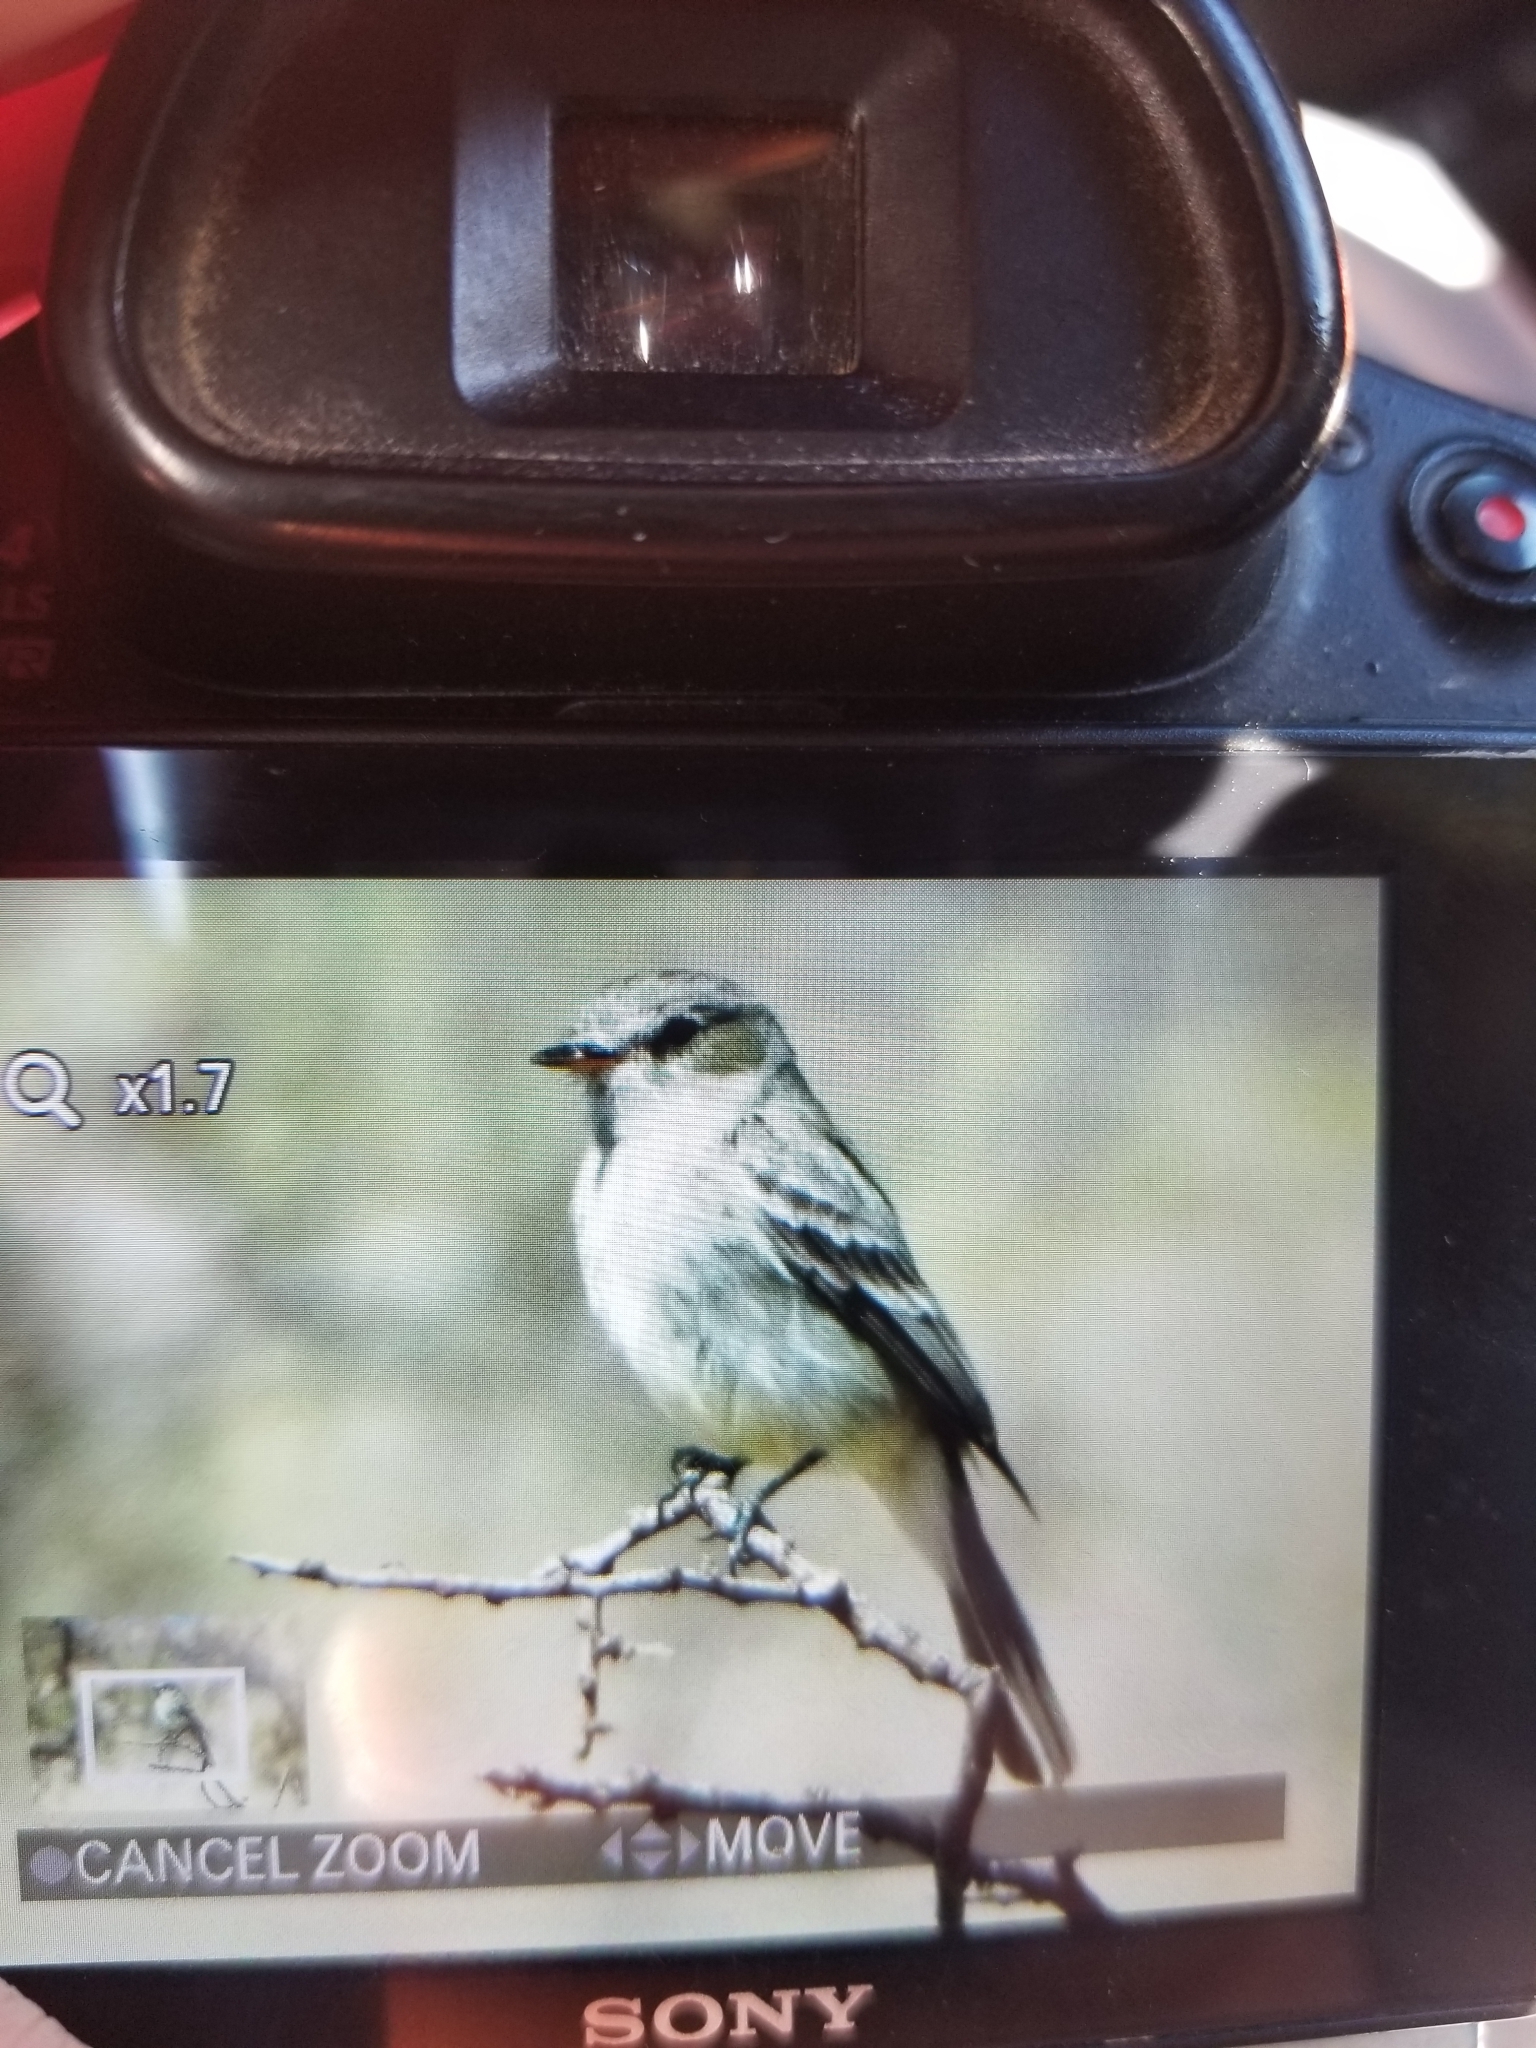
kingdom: Animalia
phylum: Chordata
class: Aves
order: Passeriformes
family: Tyrannidae
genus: Empidonax
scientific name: Empidonax wrightii
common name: Gray flycatcher
